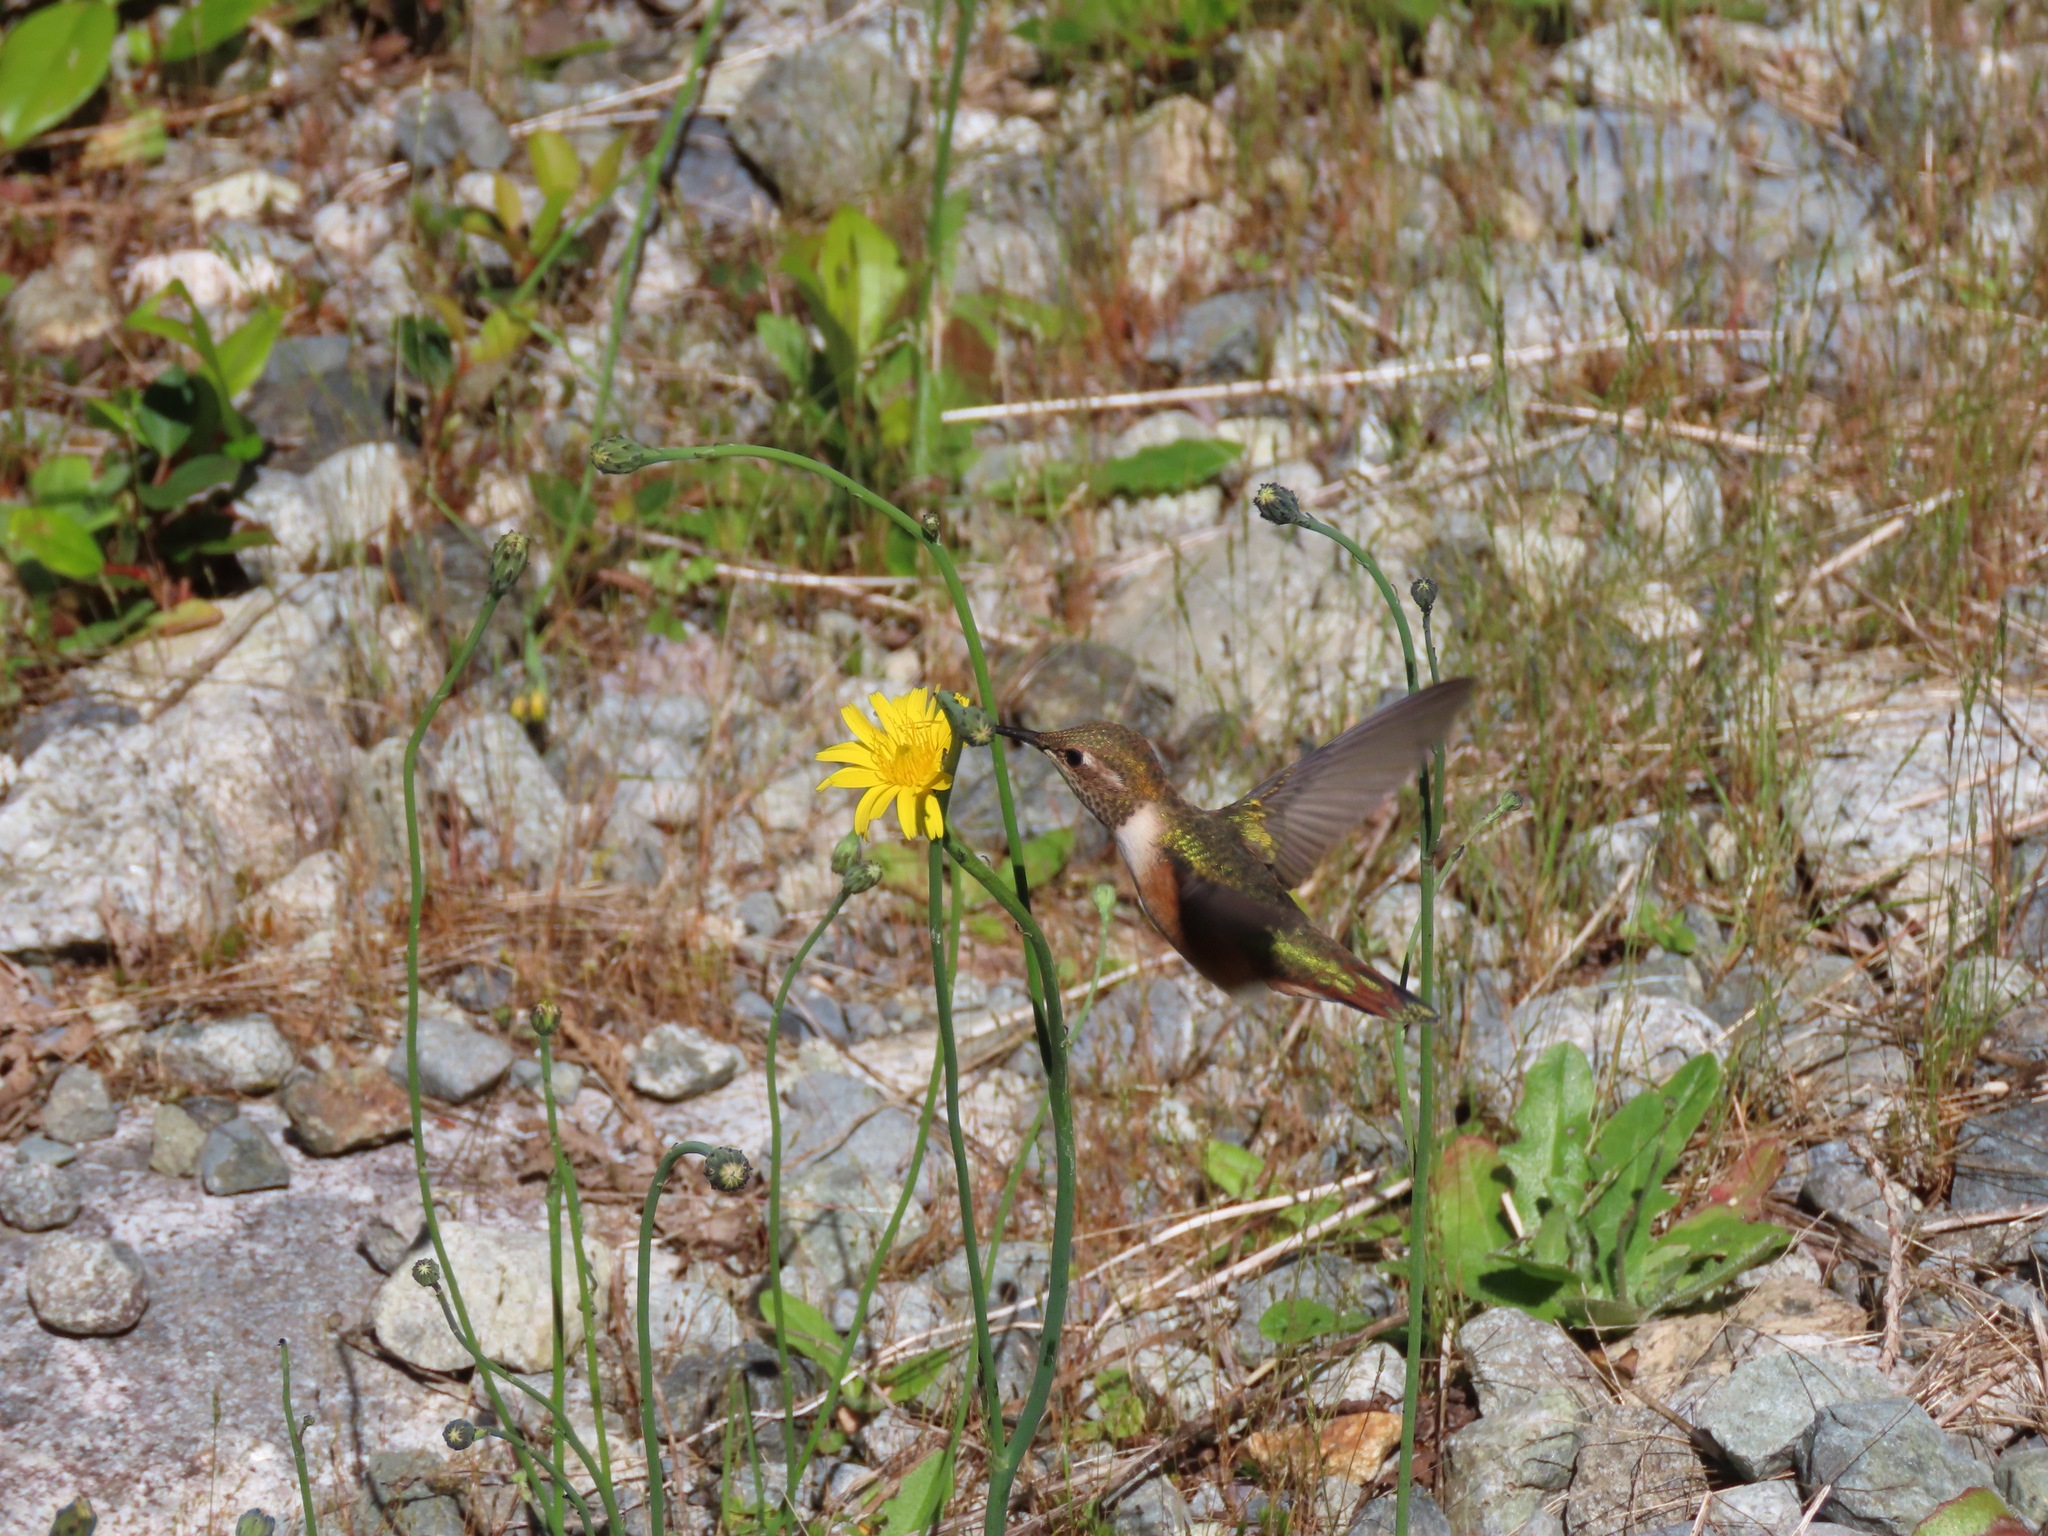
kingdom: Animalia
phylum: Chordata
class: Aves
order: Apodiformes
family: Trochilidae
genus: Selasphorus
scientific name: Selasphorus rufus
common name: Rufous hummingbird
